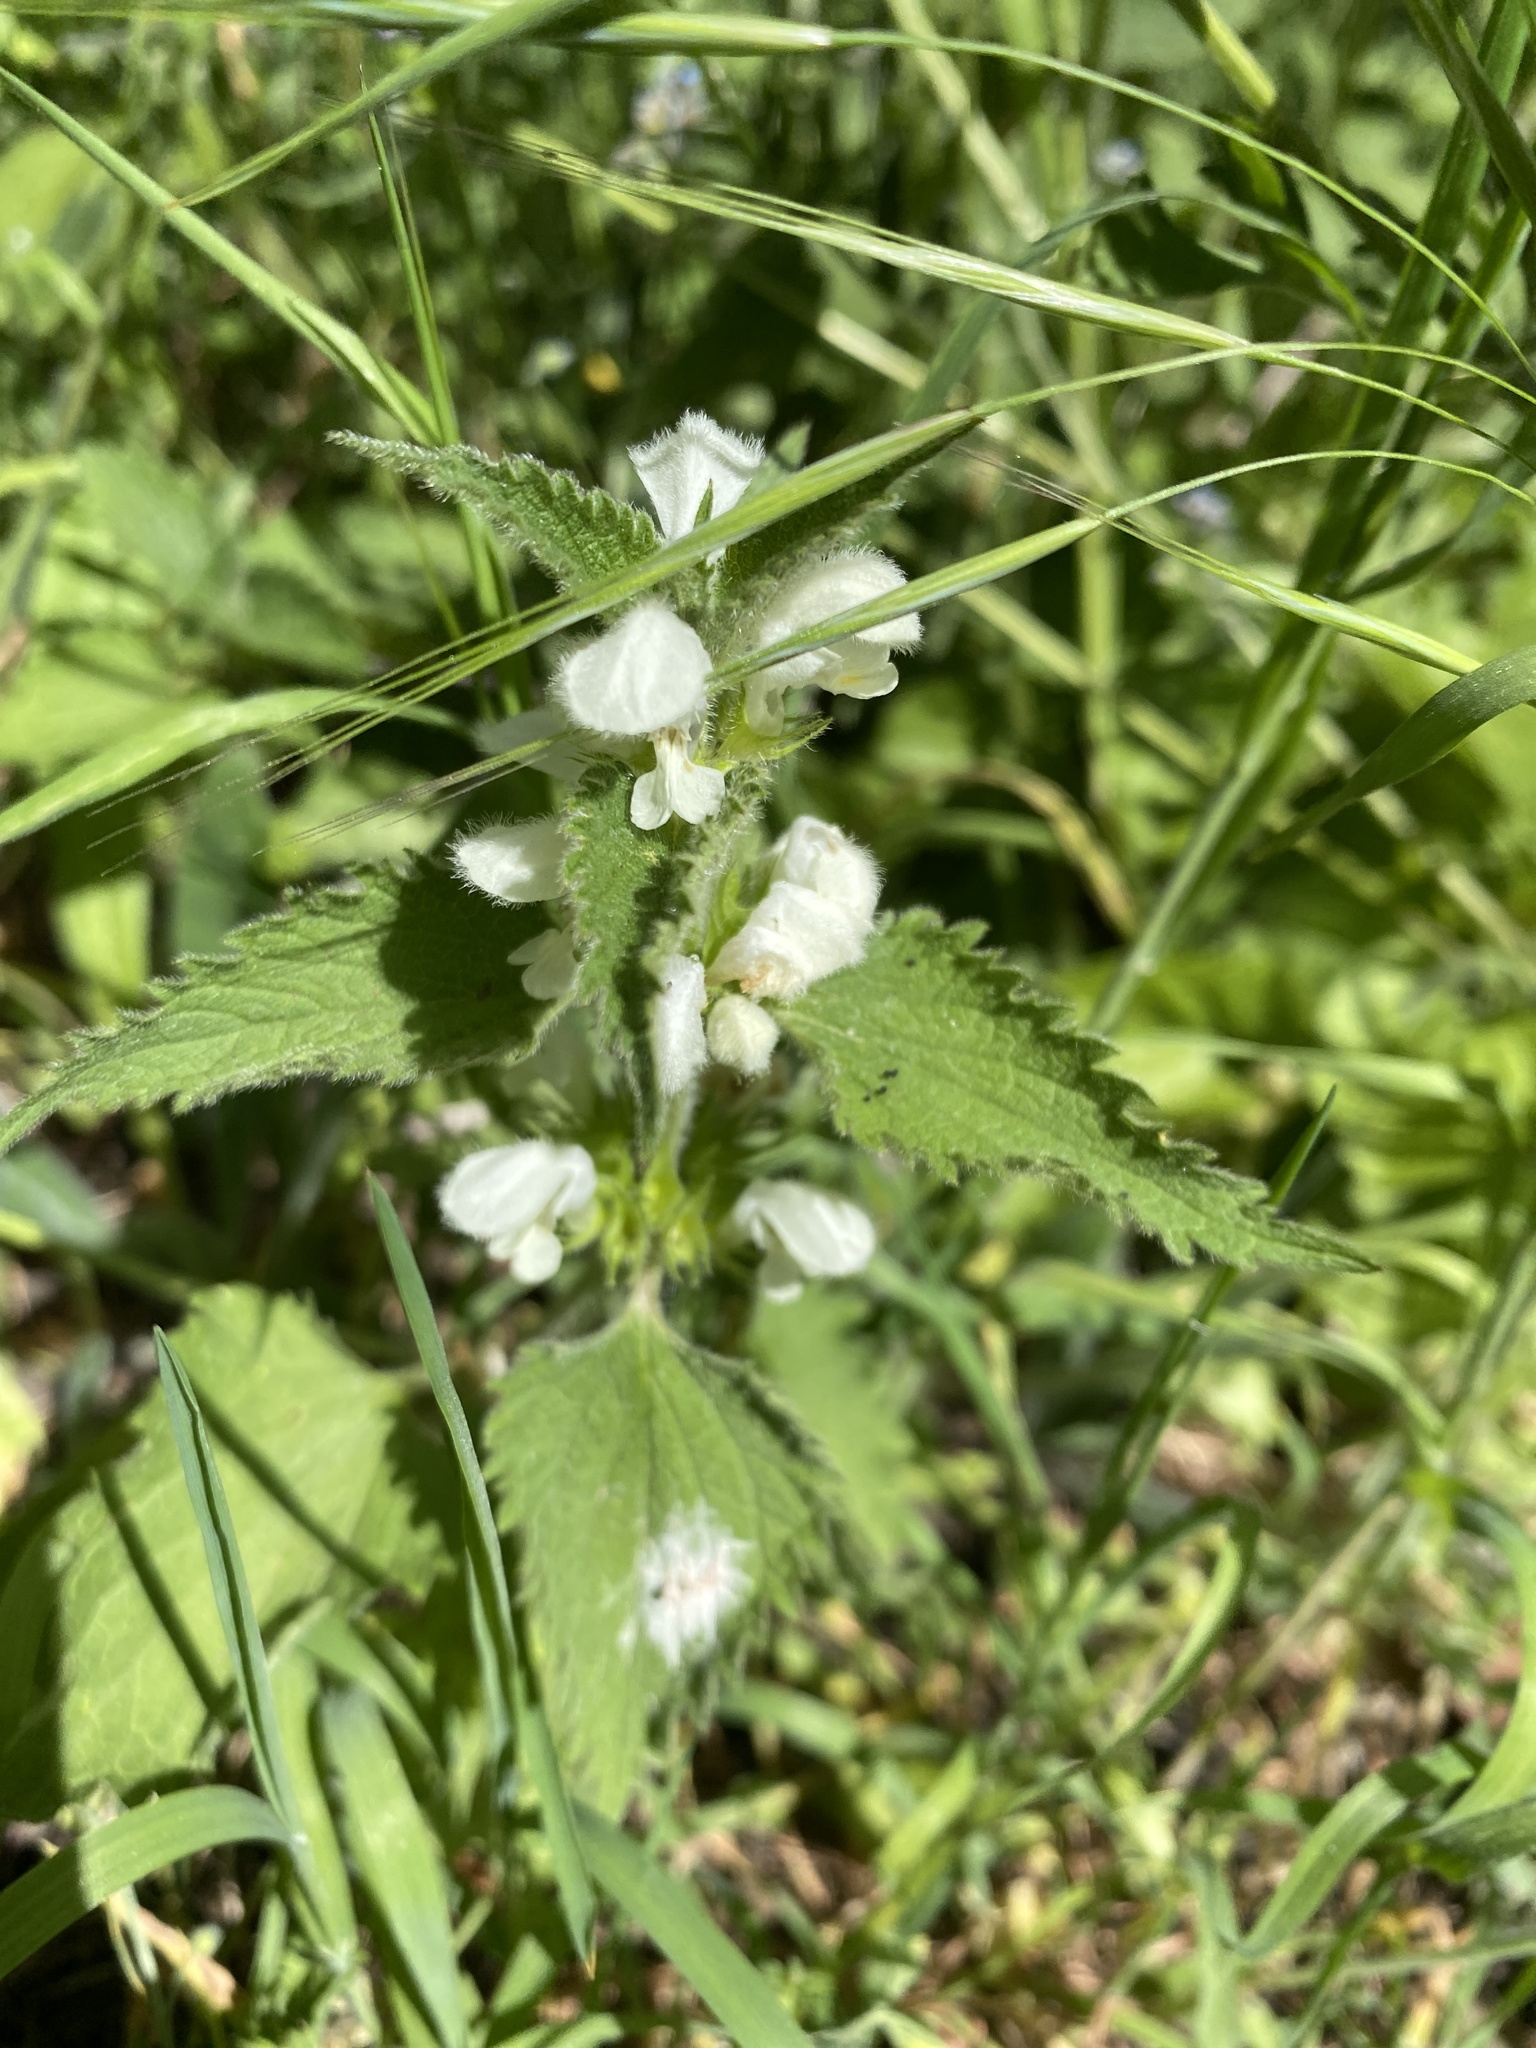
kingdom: Plantae
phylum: Tracheophyta
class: Magnoliopsida
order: Lamiales
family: Lamiaceae
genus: Lamium
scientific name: Lamium album
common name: White dead-nettle
